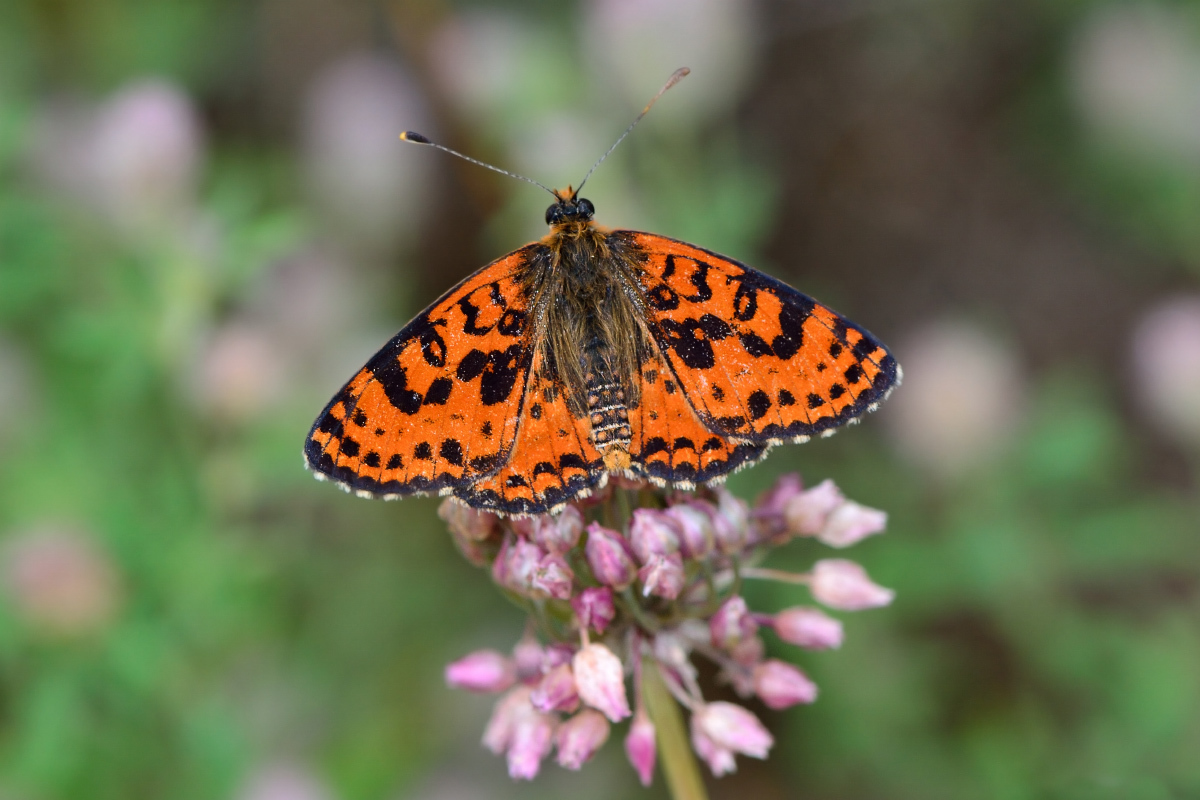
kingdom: Animalia
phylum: Arthropoda
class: Insecta
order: Lepidoptera
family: Nymphalidae
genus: Melitaea
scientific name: Melitaea didyma
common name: Spotted fritillary
